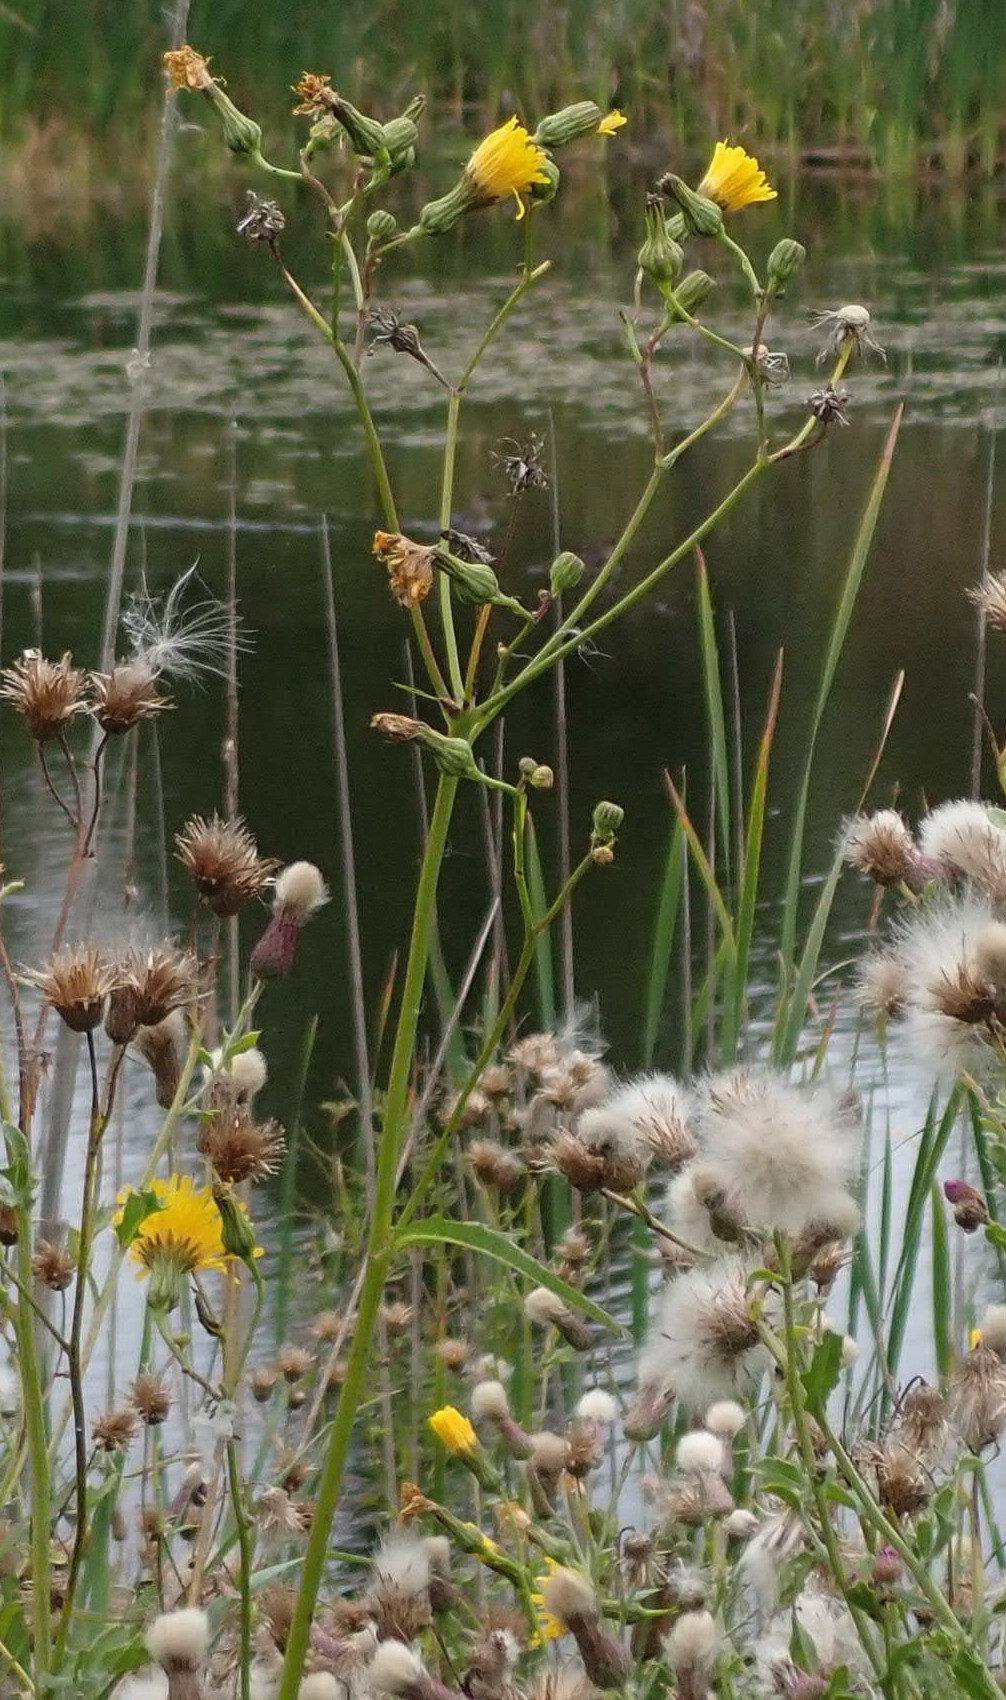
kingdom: Plantae
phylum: Tracheophyta
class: Magnoliopsida
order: Asterales
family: Asteraceae
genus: Sonchus
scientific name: Sonchus arvensis
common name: Perennial sow-thistle
